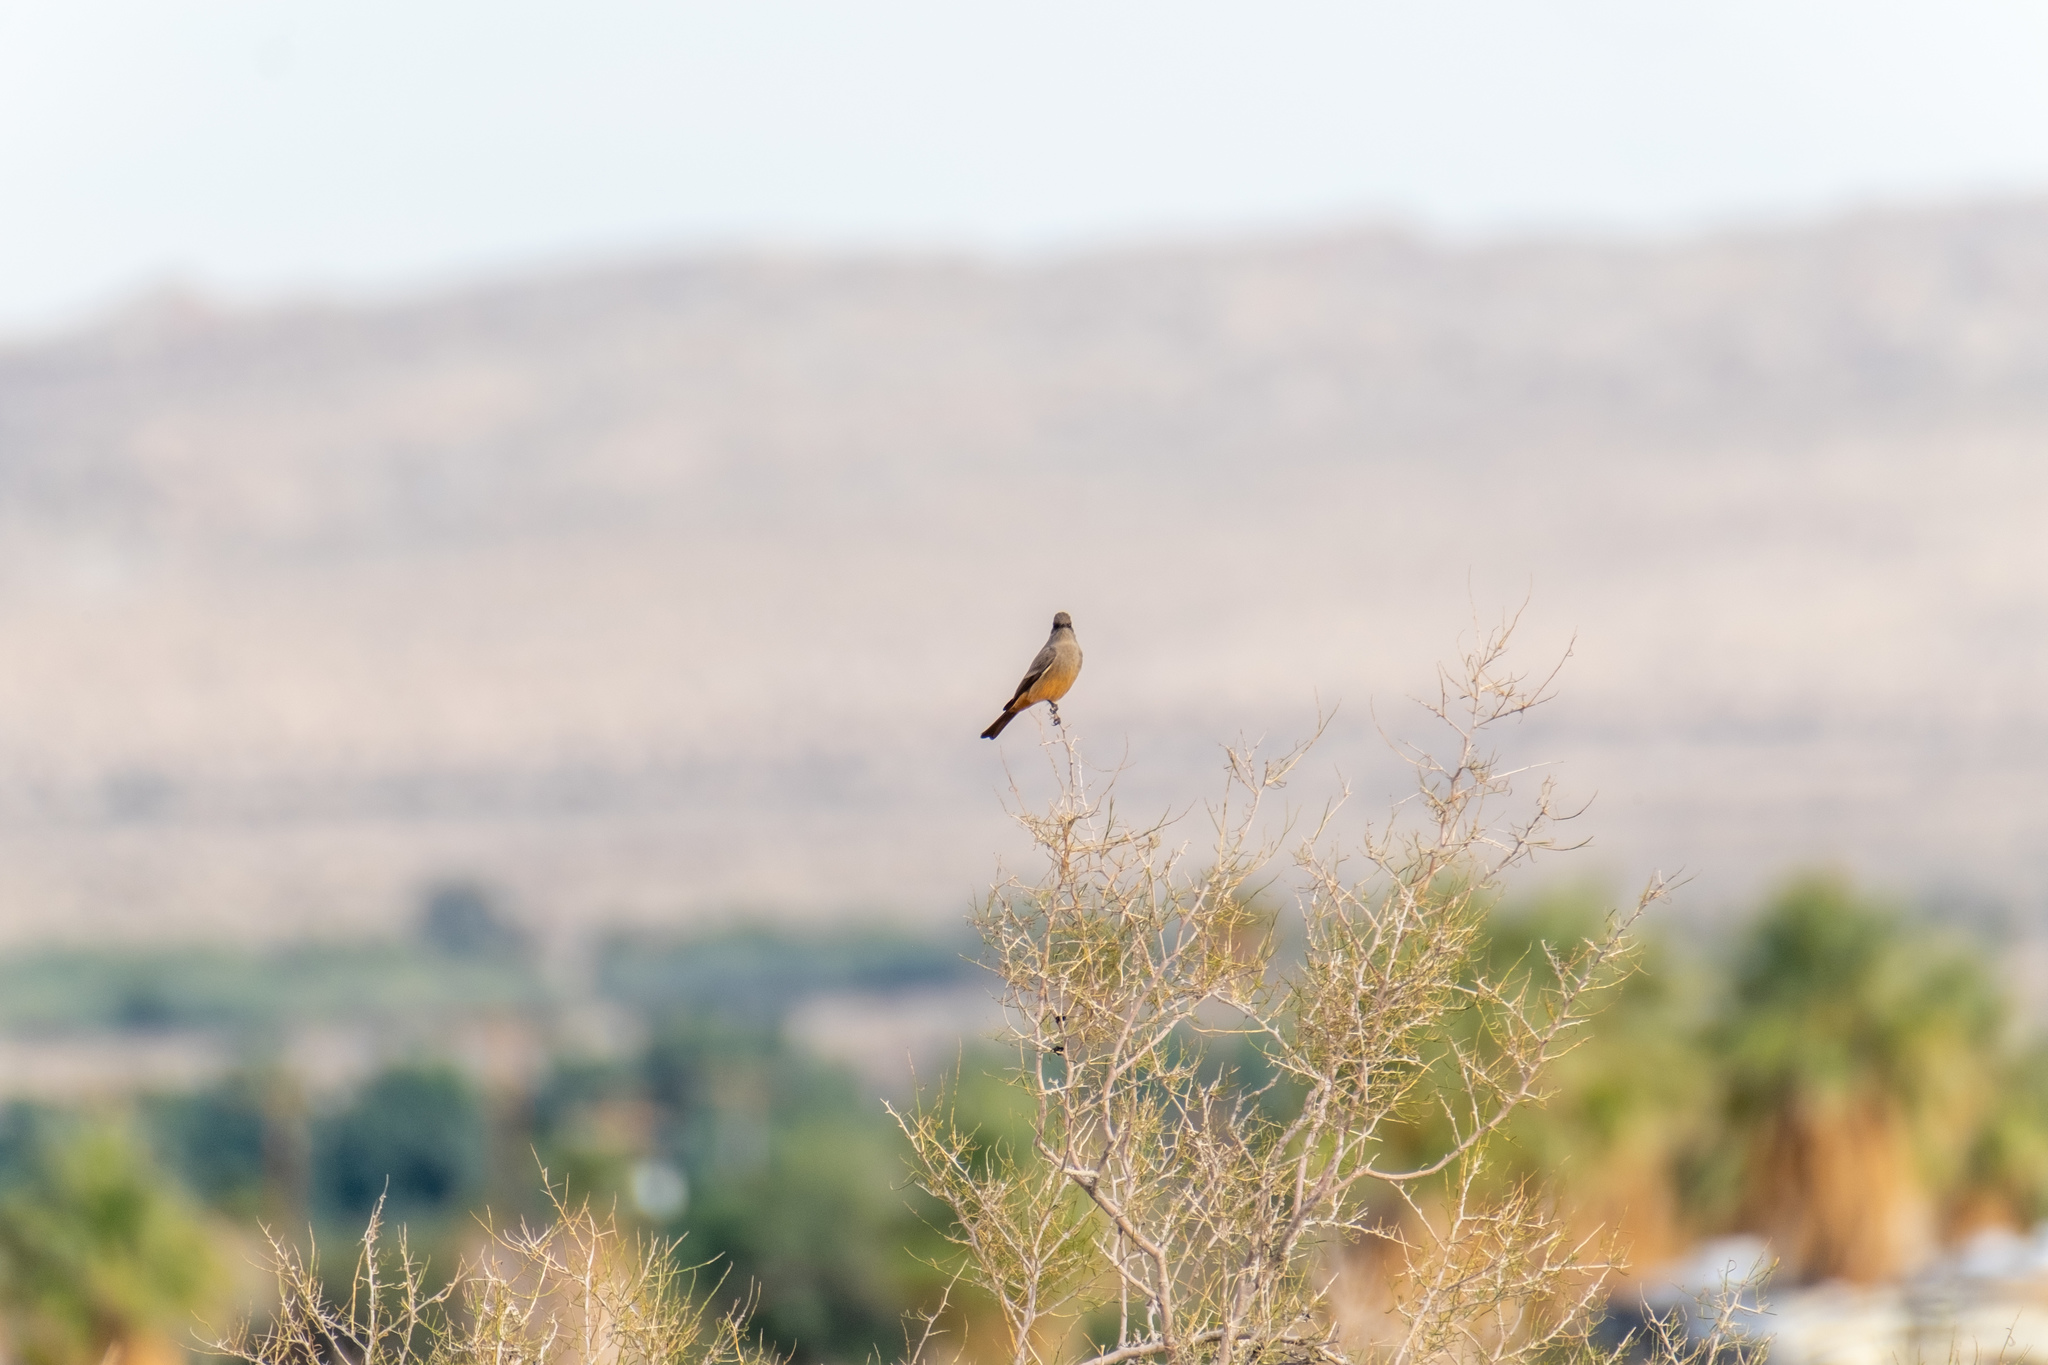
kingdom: Animalia
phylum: Chordata
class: Aves
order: Passeriformes
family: Tyrannidae
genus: Sayornis
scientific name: Sayornis saya
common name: Say's phoebe
